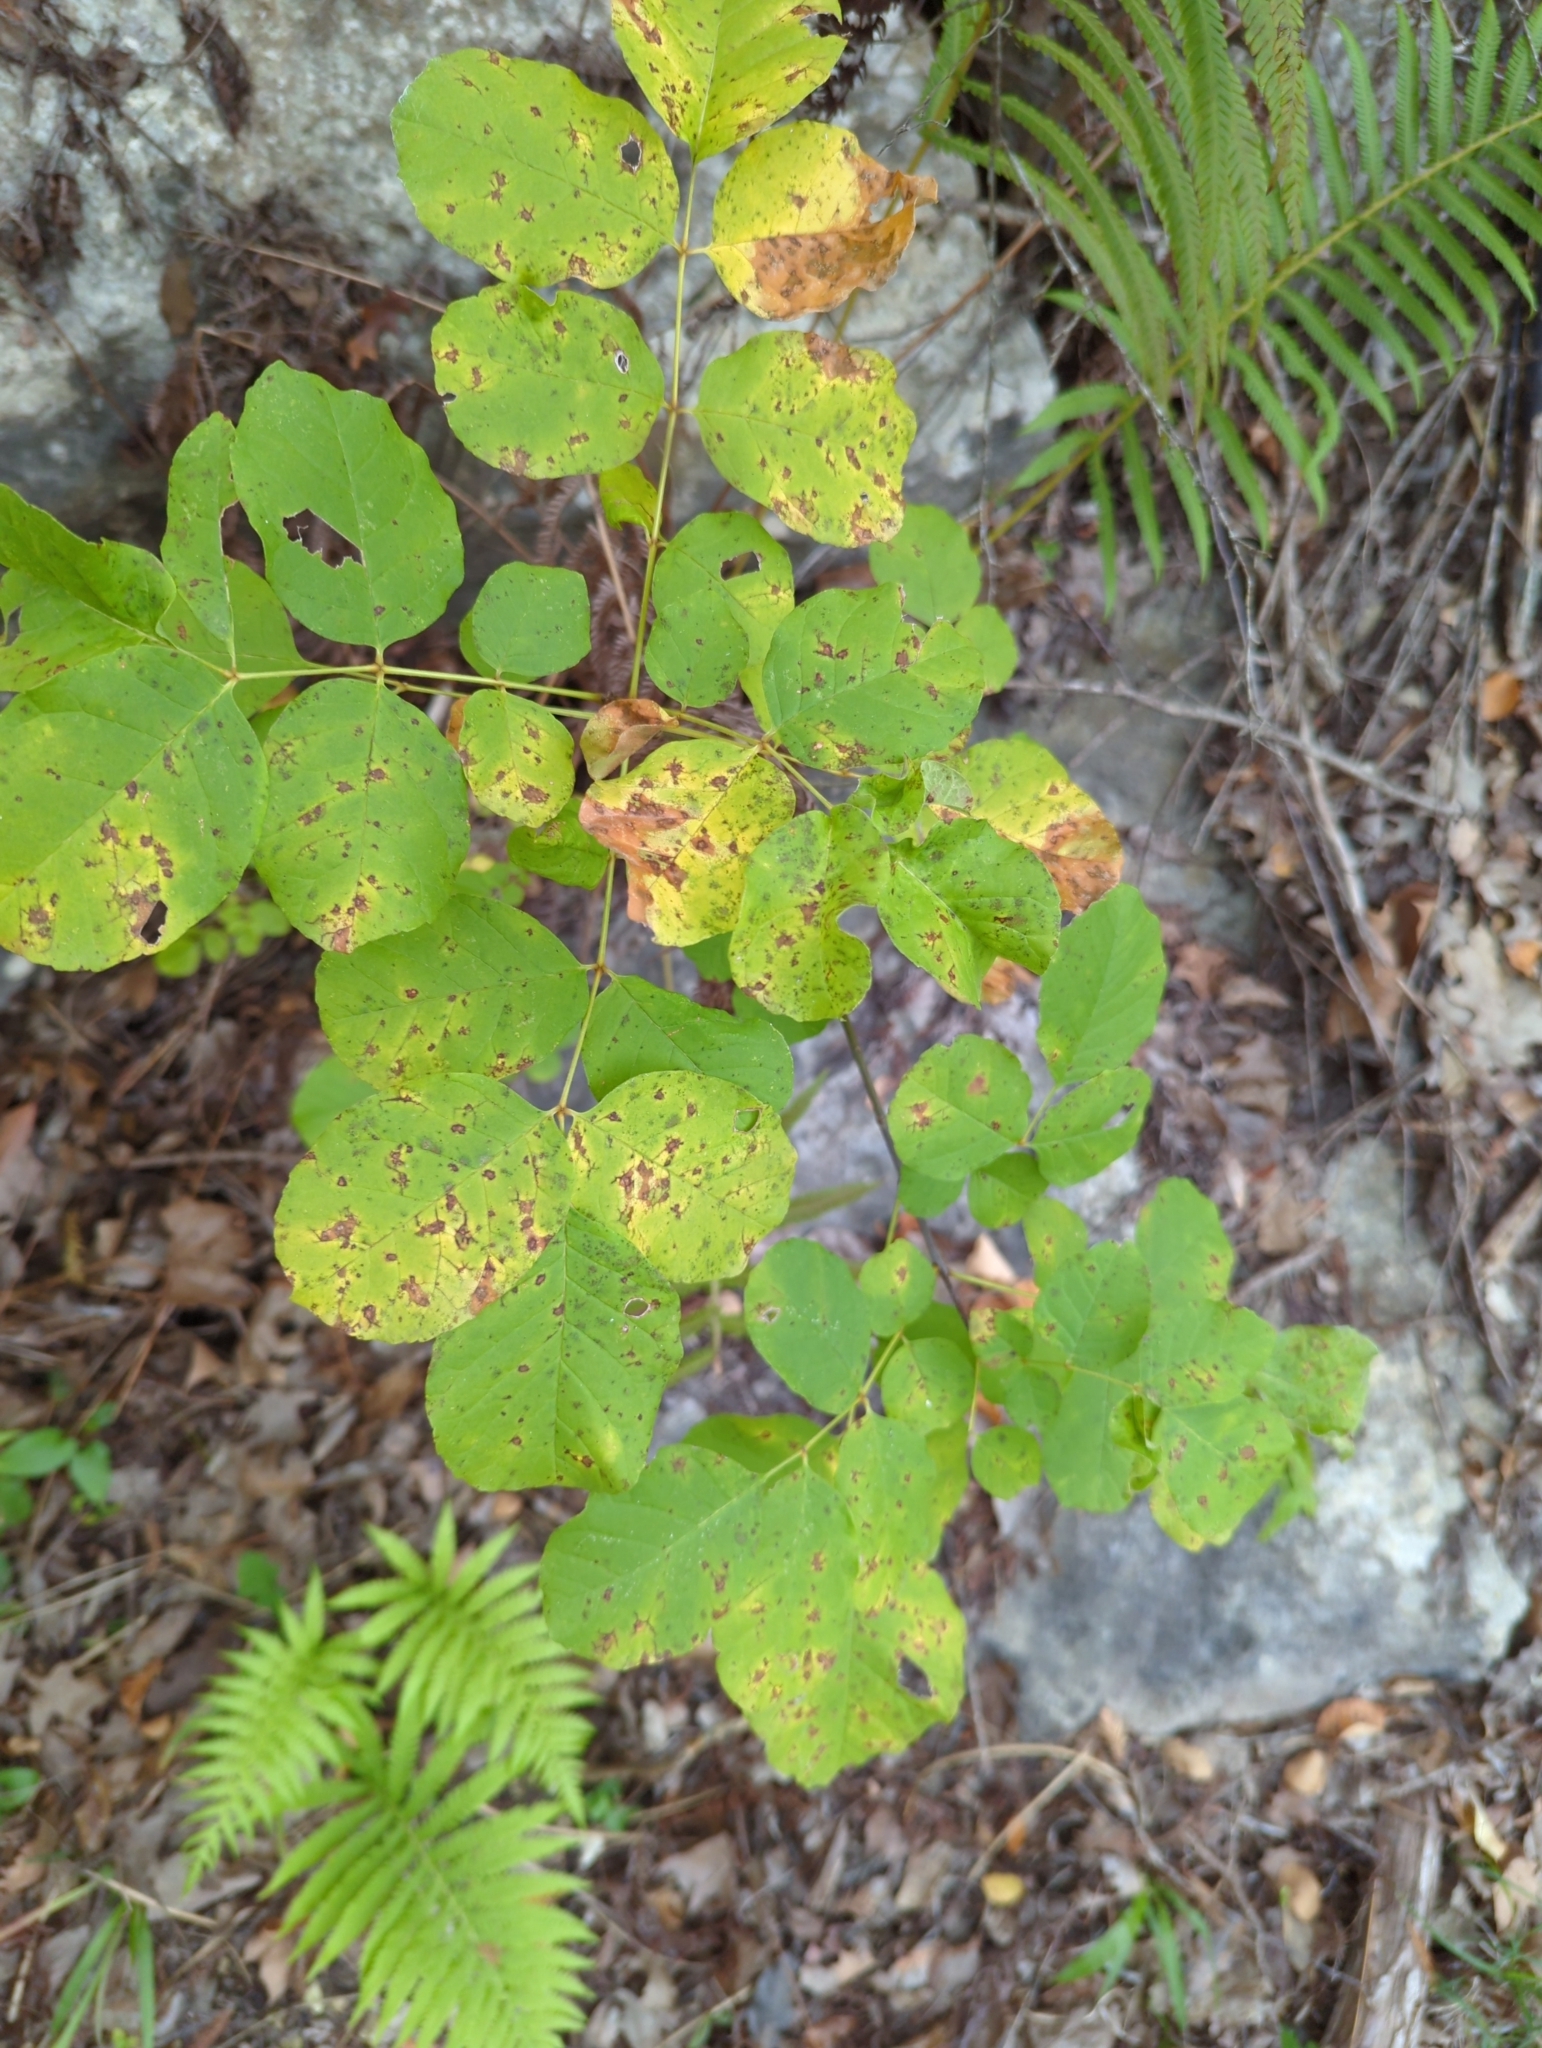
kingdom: Plantae
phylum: Tracheophyta
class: Magnoliopsida
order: Lamiales
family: Oleaceae
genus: Fraxinus
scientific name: Fraxinus albicans
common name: Texas ash
